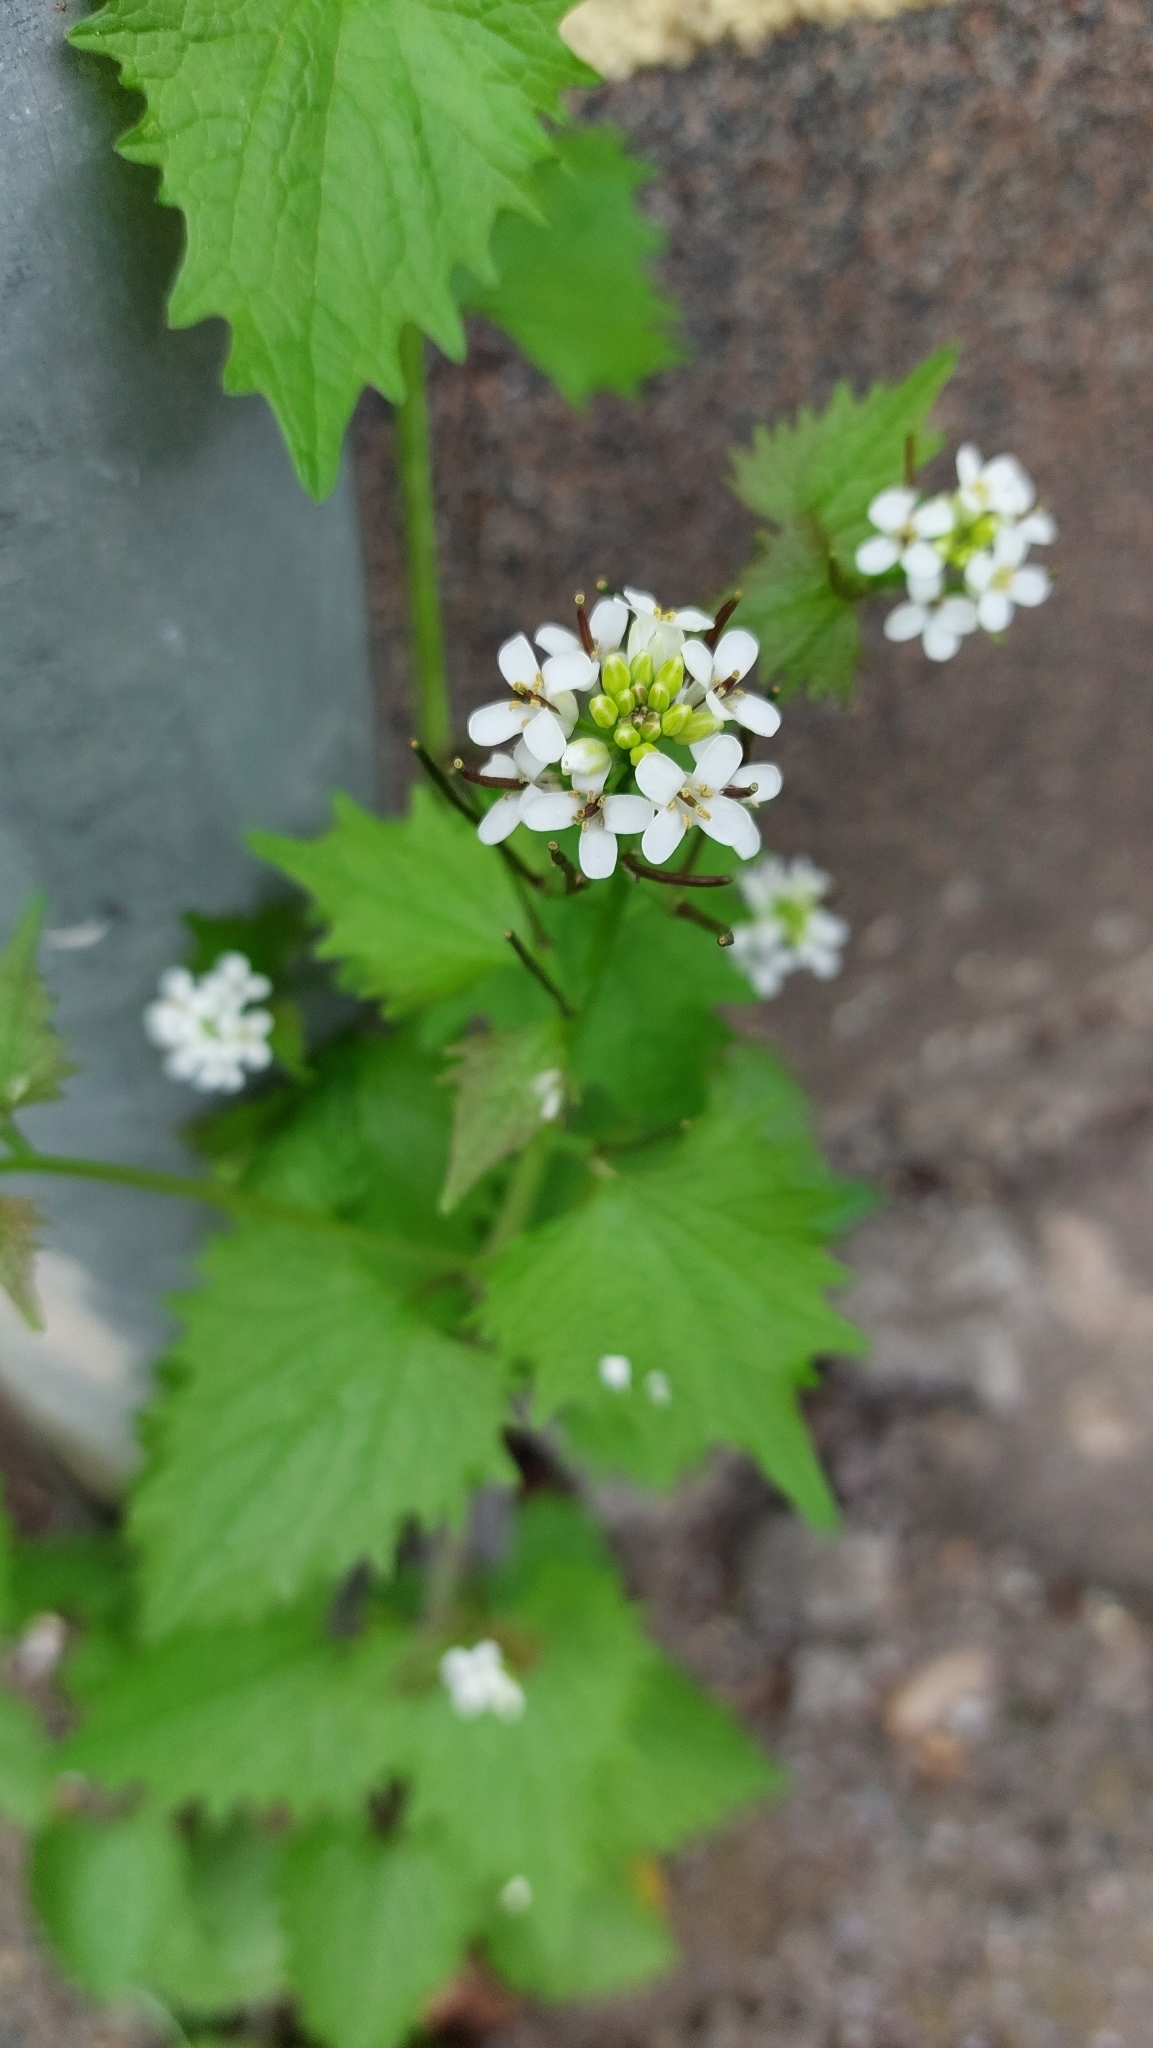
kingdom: Plantae
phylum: Tracheophyta
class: Magnoliopsida
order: Brassicales
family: Brassicaceae
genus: Alliaria
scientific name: Alliaria petiolata
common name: Garlic mustard
